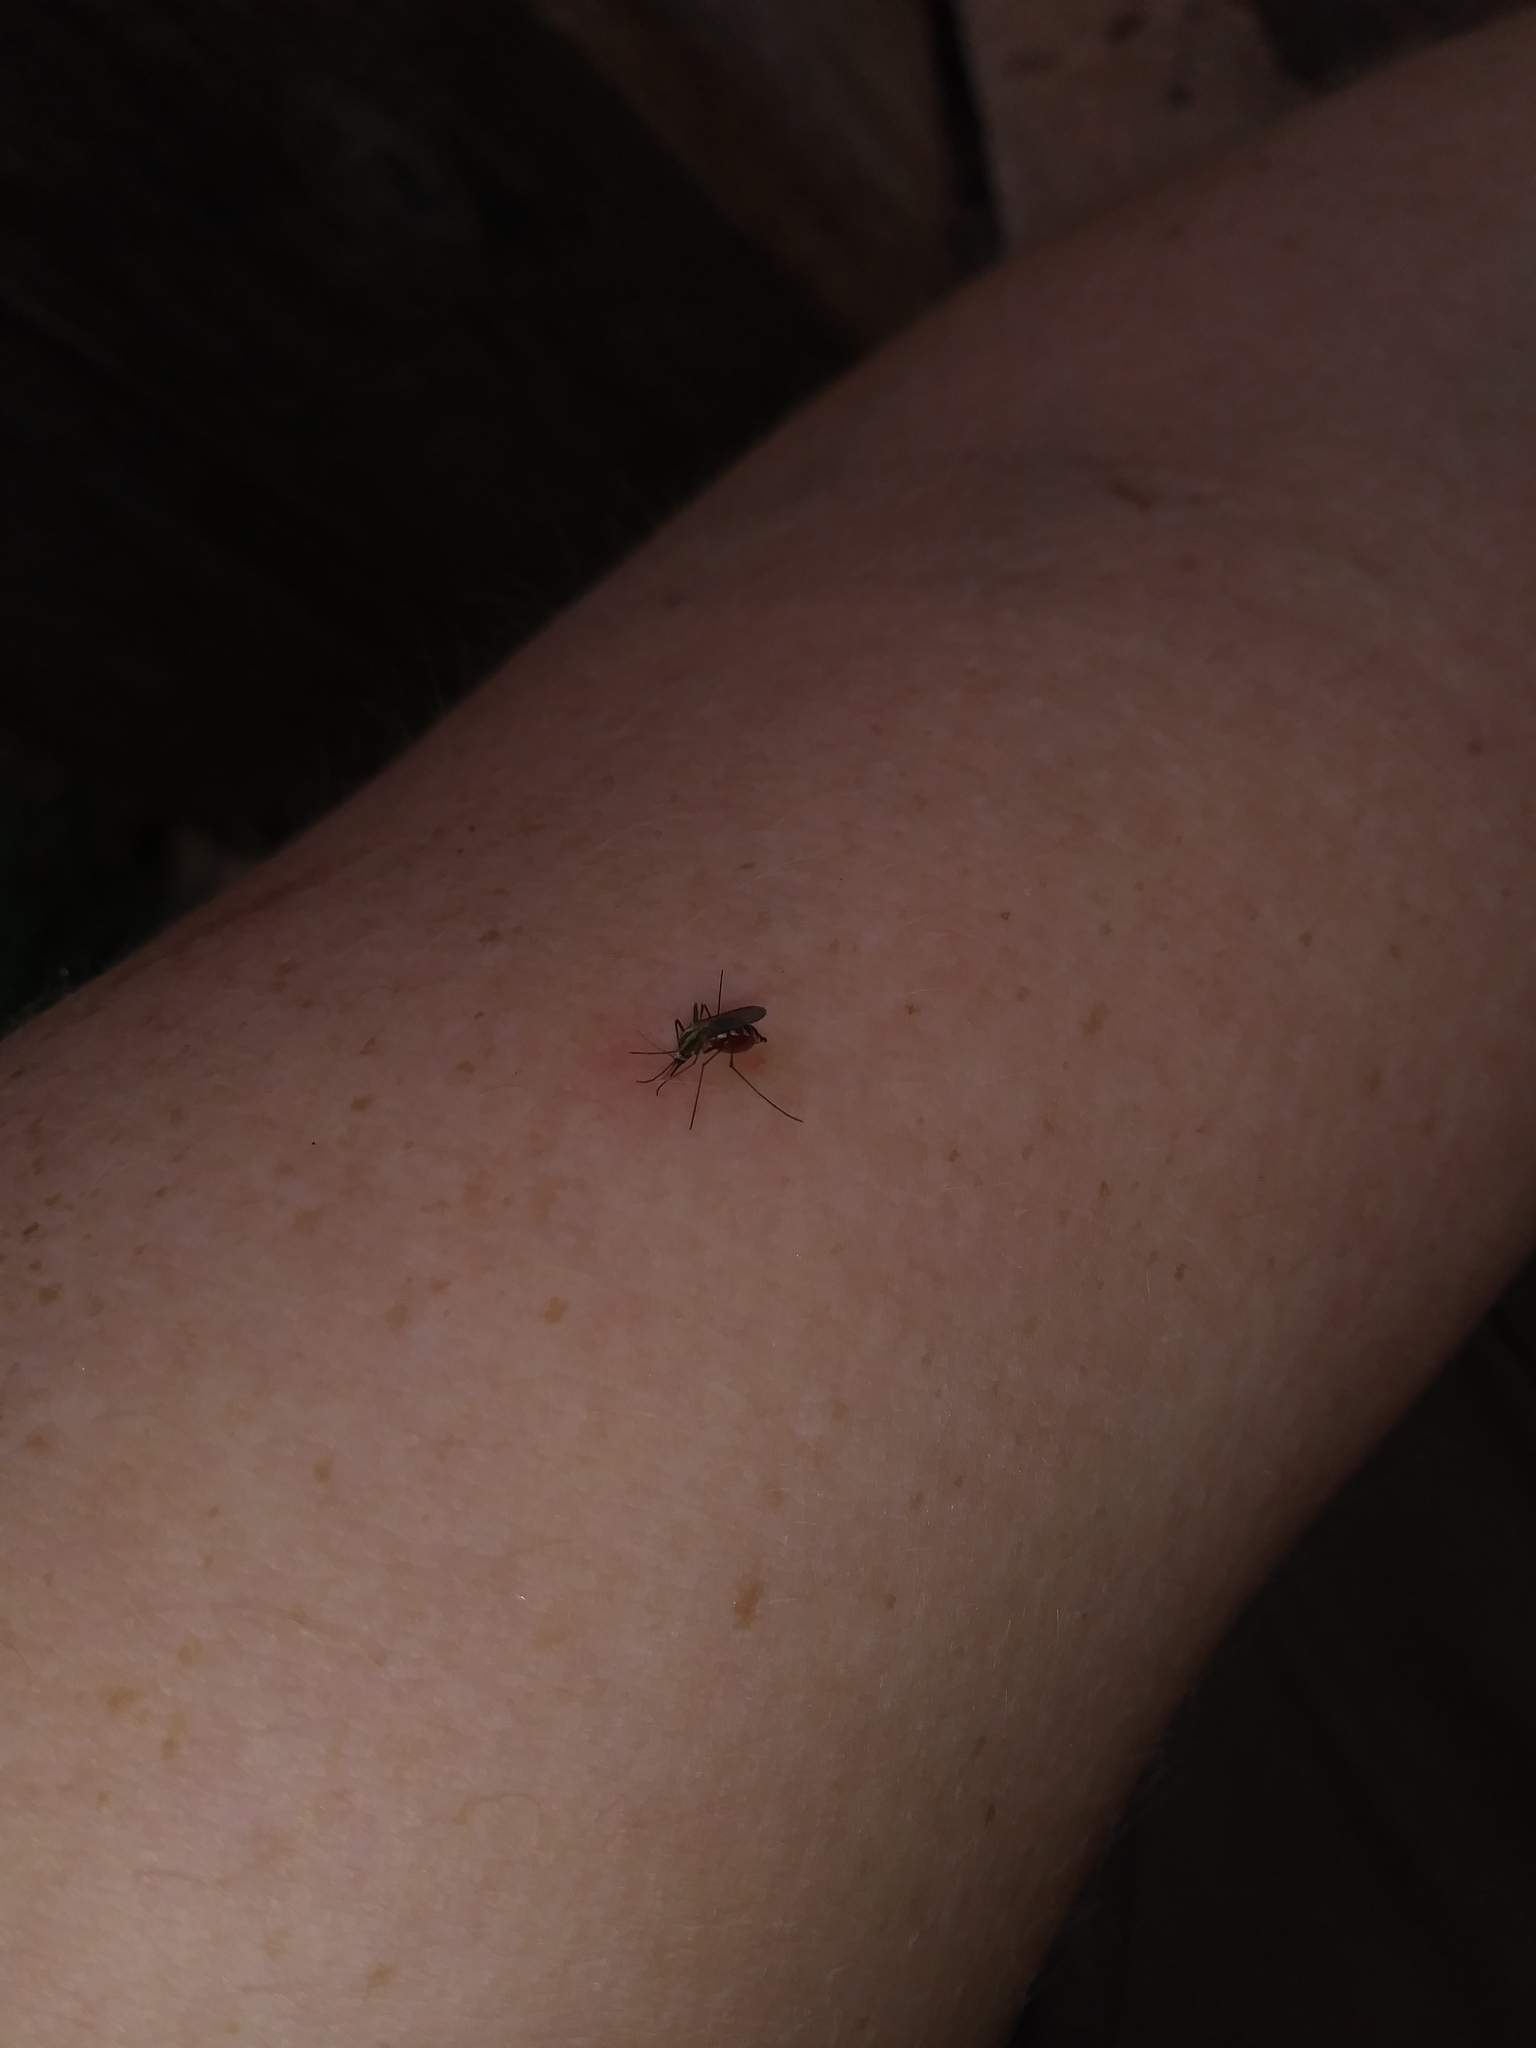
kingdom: Animalia
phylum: Arthropoda
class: Insecta
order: Diptera
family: Culicidae
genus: Aedes
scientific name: Aedes trivittatus
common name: Plains floodwater mosquito
